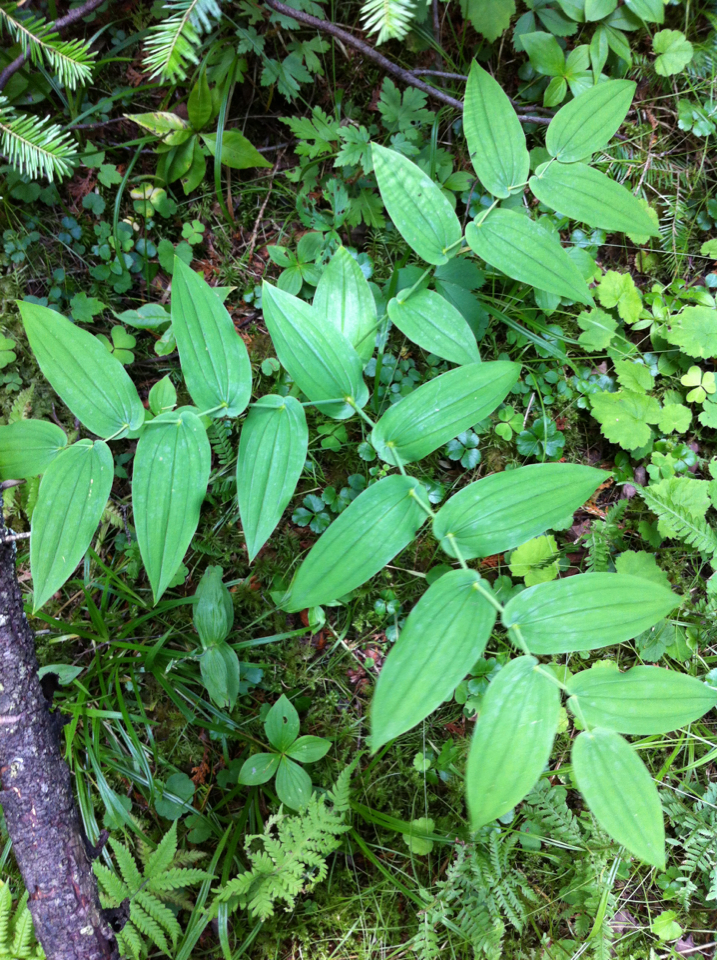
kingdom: Plantae
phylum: Tracheophyta
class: Liliopsida
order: Liliales
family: Liliaceae
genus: Streptopus
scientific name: Streptopus amplexifolius
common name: Clasp twisted stalk
